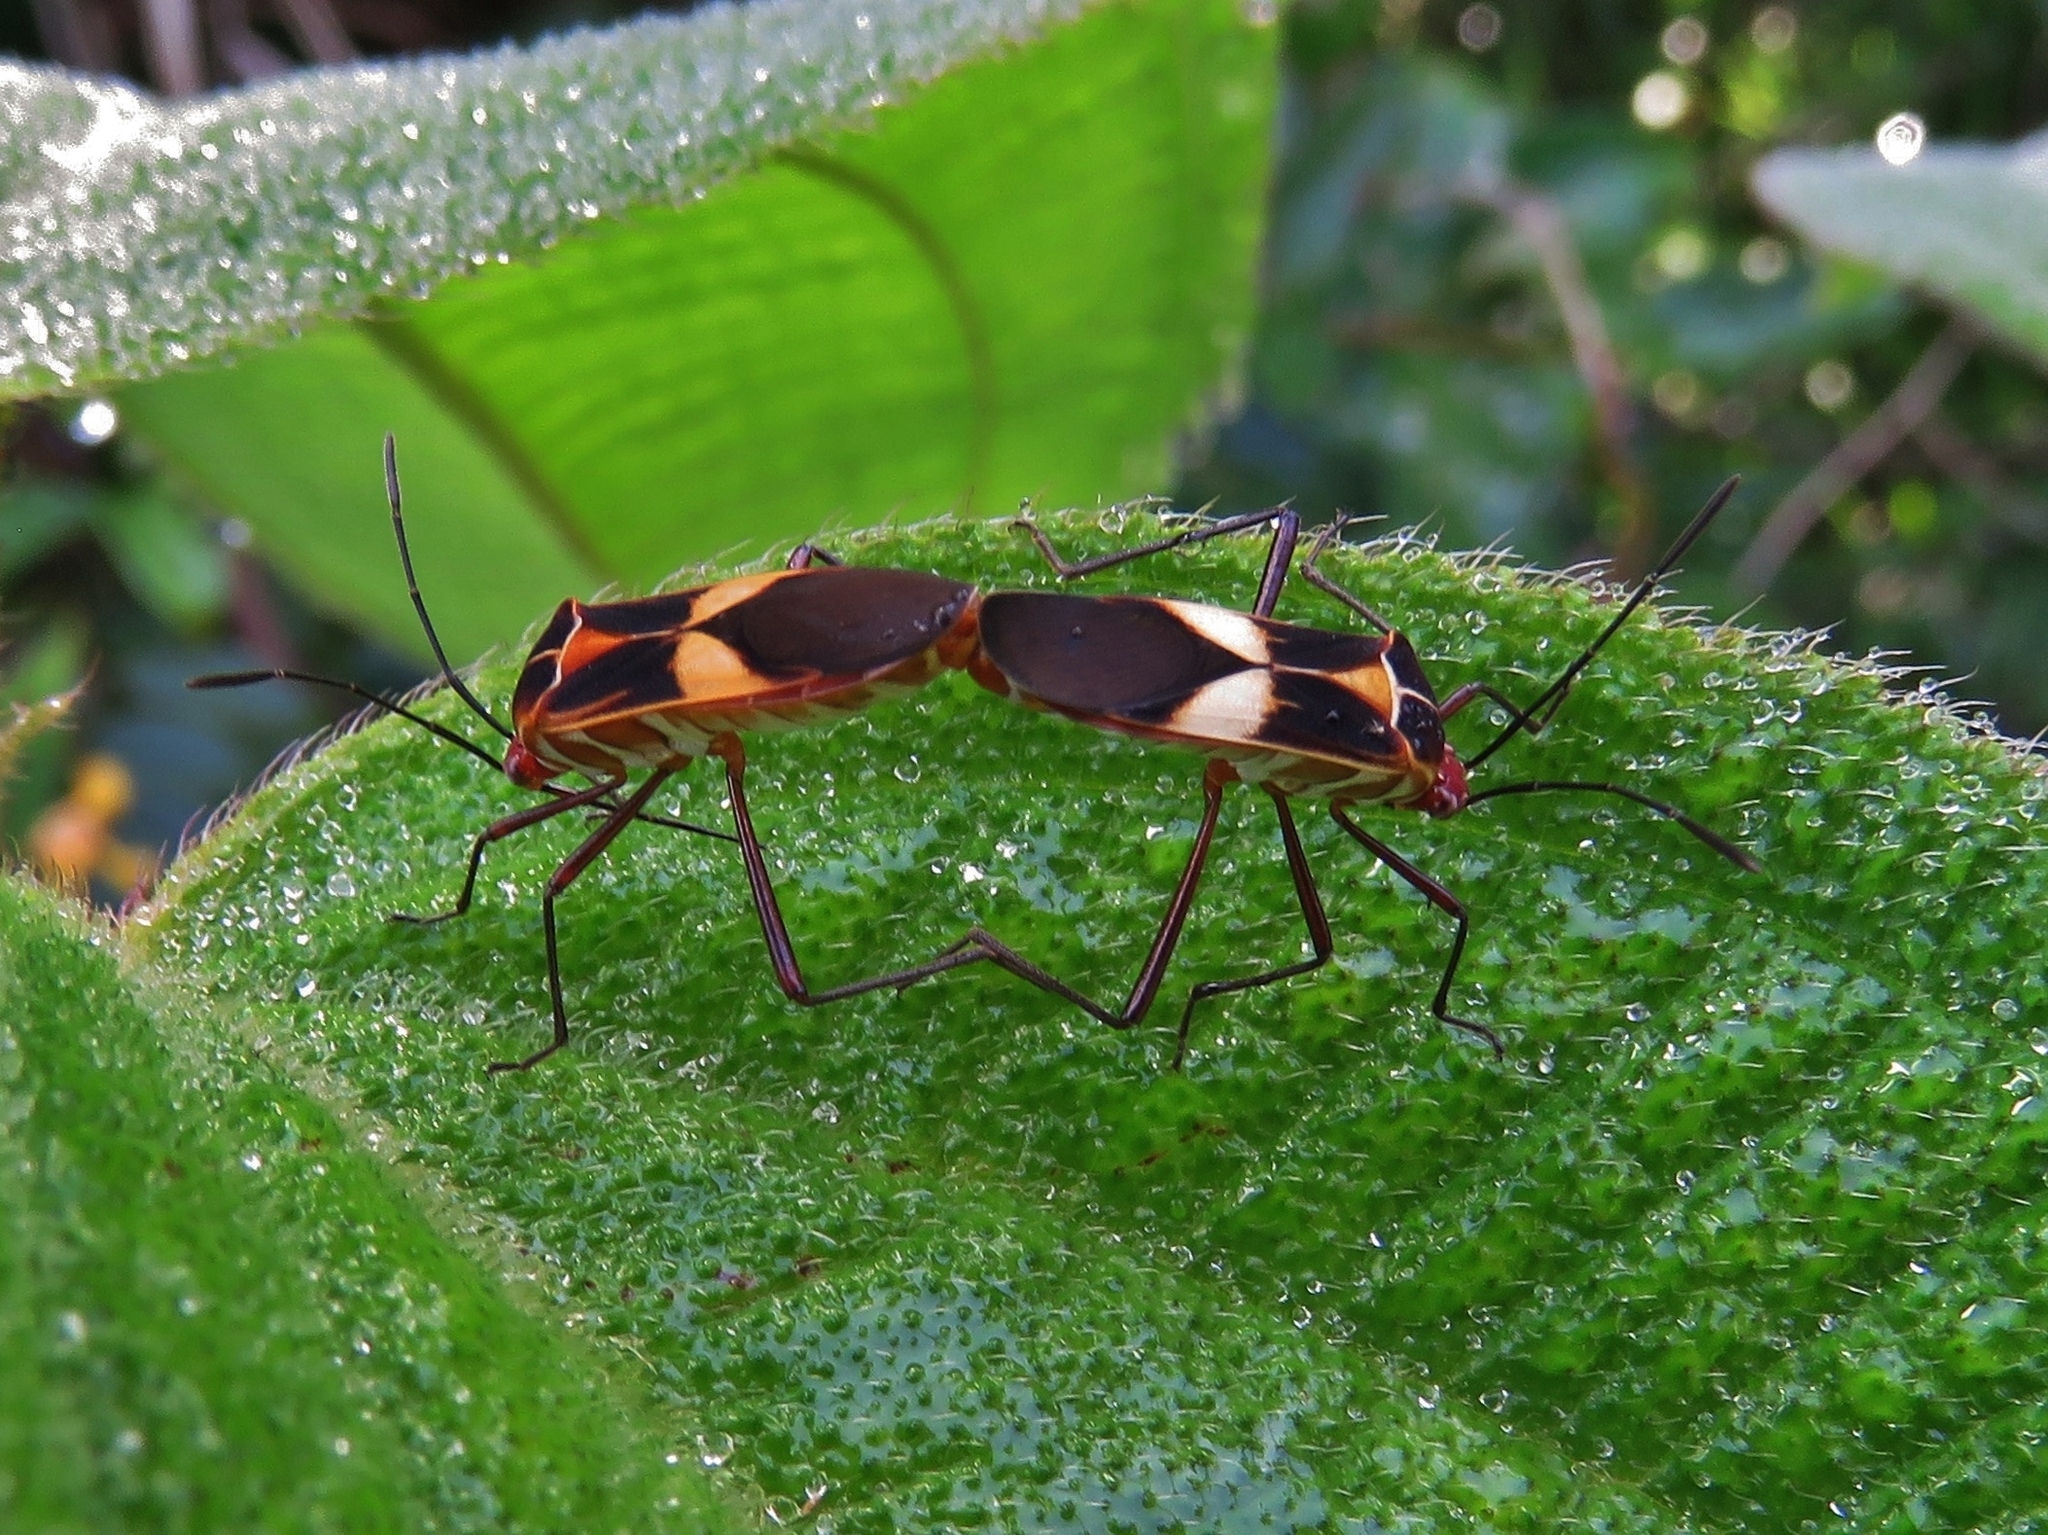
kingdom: Animalia
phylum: Arthropoda
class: Insecta
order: Hemiptera
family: Coreidae
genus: Hypselonotus
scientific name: Hypselonotus interruptus
